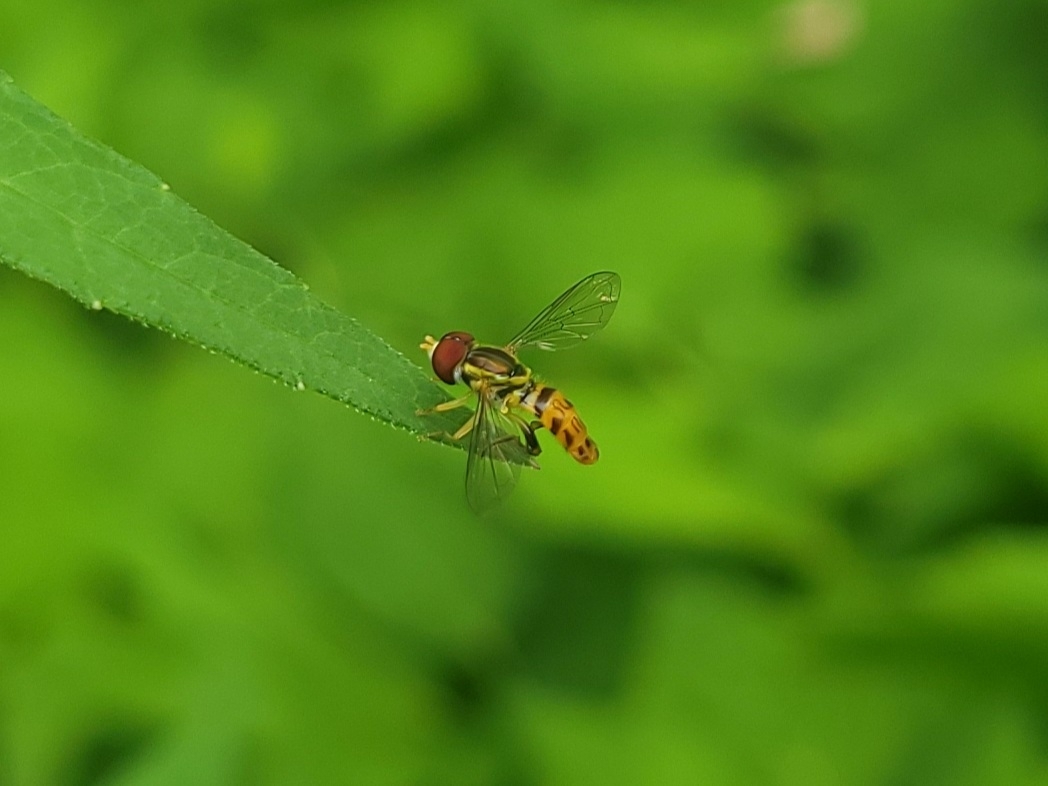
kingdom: Animalia
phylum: Arthropoda
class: Insecta
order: Diptera
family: Syrphidae
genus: Toxomerus
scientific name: Toxomerus geminatus
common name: Eastern calligrapher
